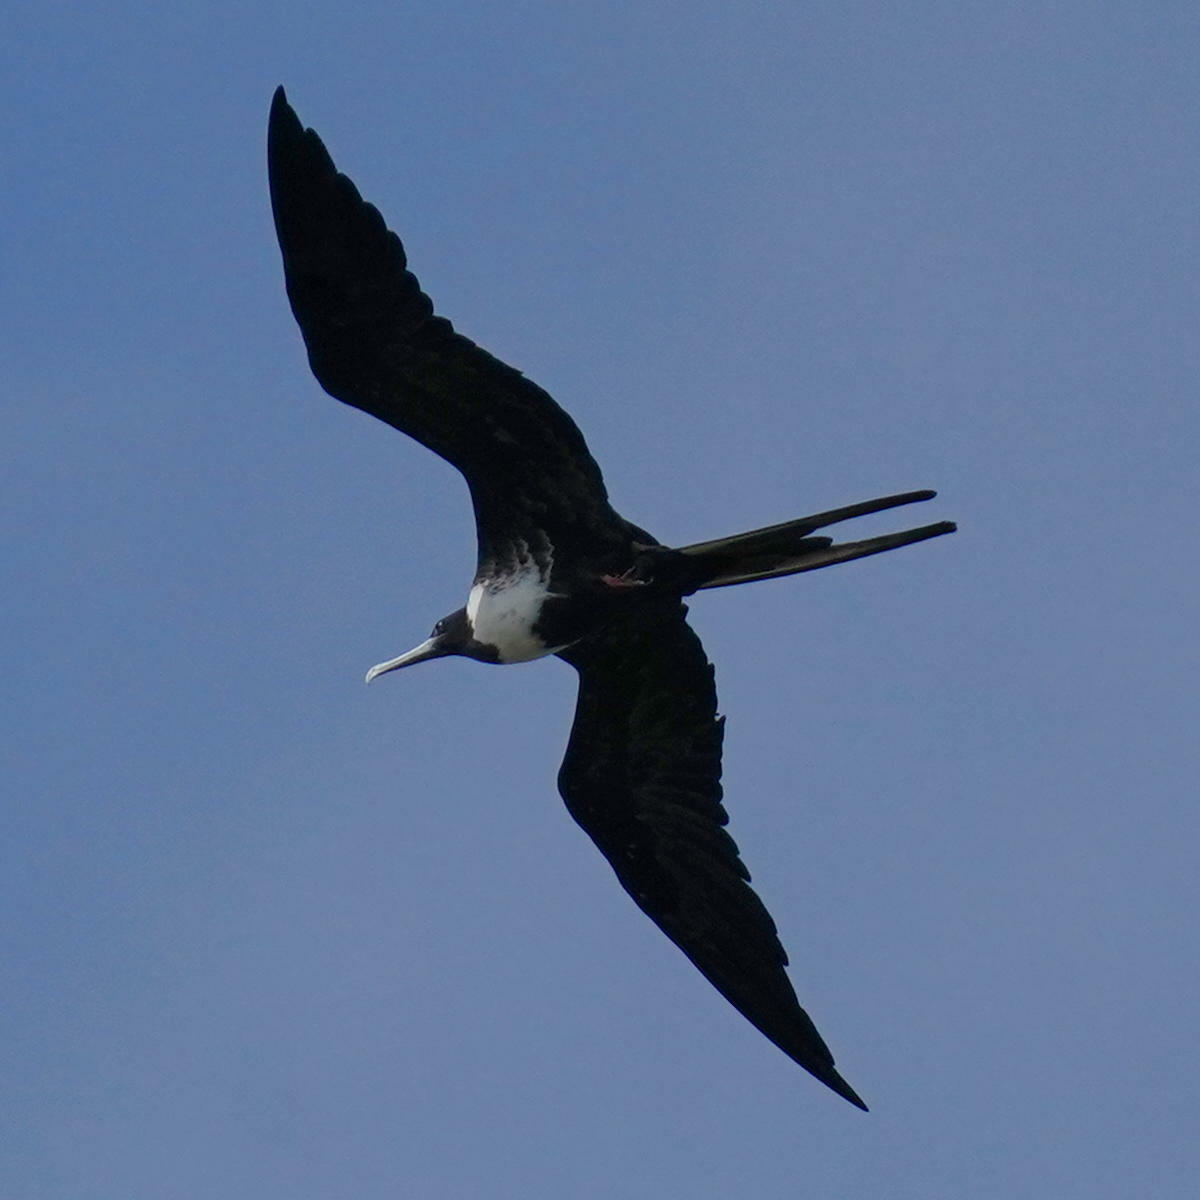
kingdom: Animalia
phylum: Chordata
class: Aves
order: Suliformes
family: Fregatidae
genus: Fregata
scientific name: Fregata magnificens
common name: Magnificent frigatebird
